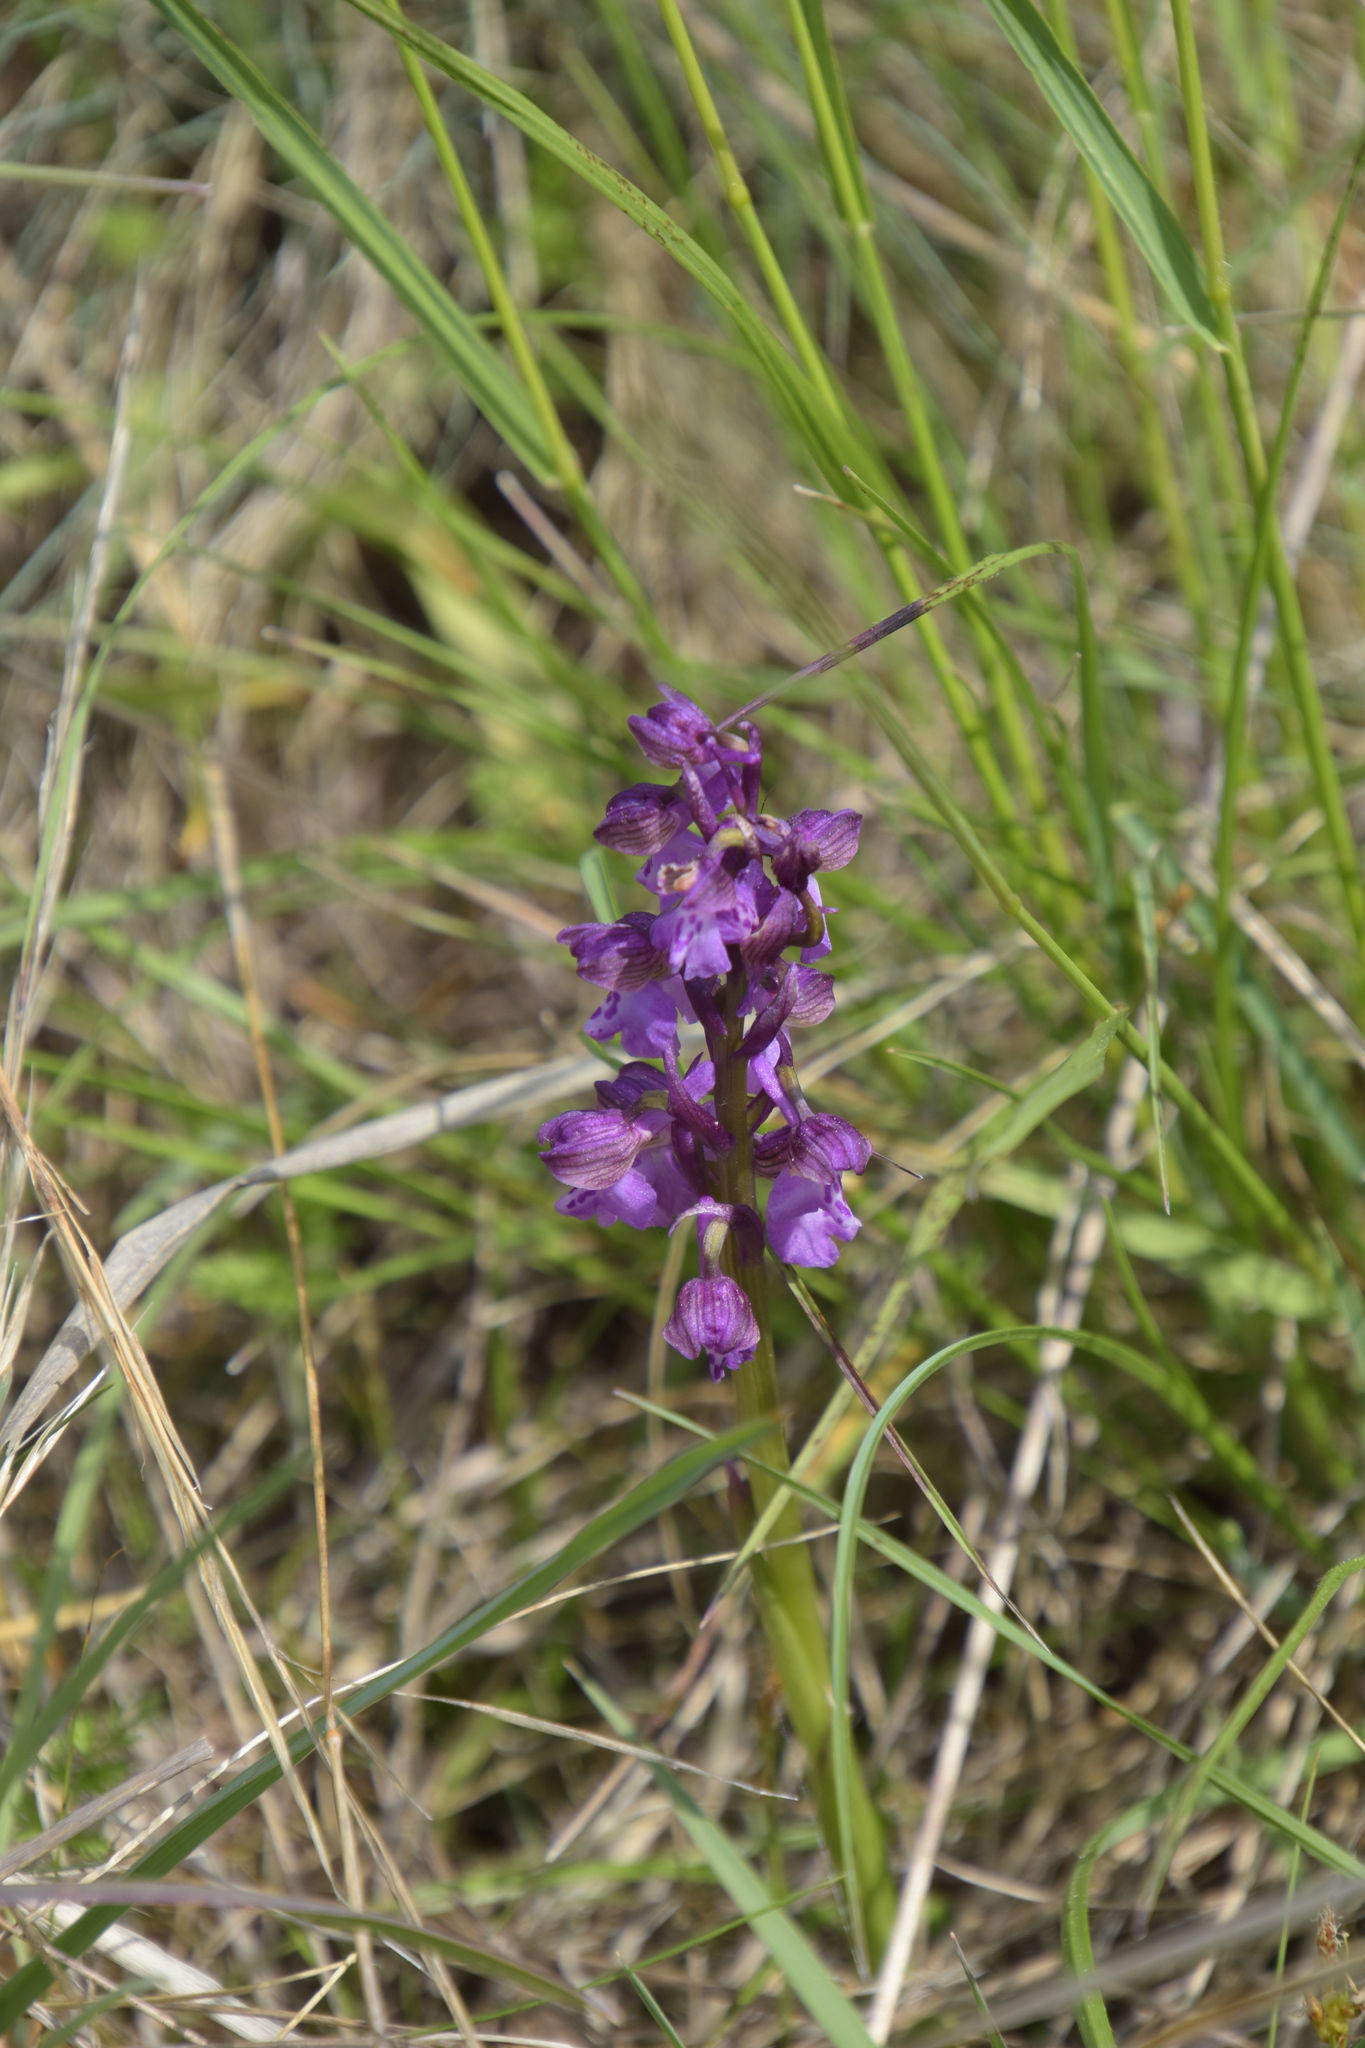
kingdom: Plantae
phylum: Tracheophyta
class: Liliopsida
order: Asparagales
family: Orchidaceae
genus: Anacamptis
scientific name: Anacamptis morio
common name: Green-winged orchid
